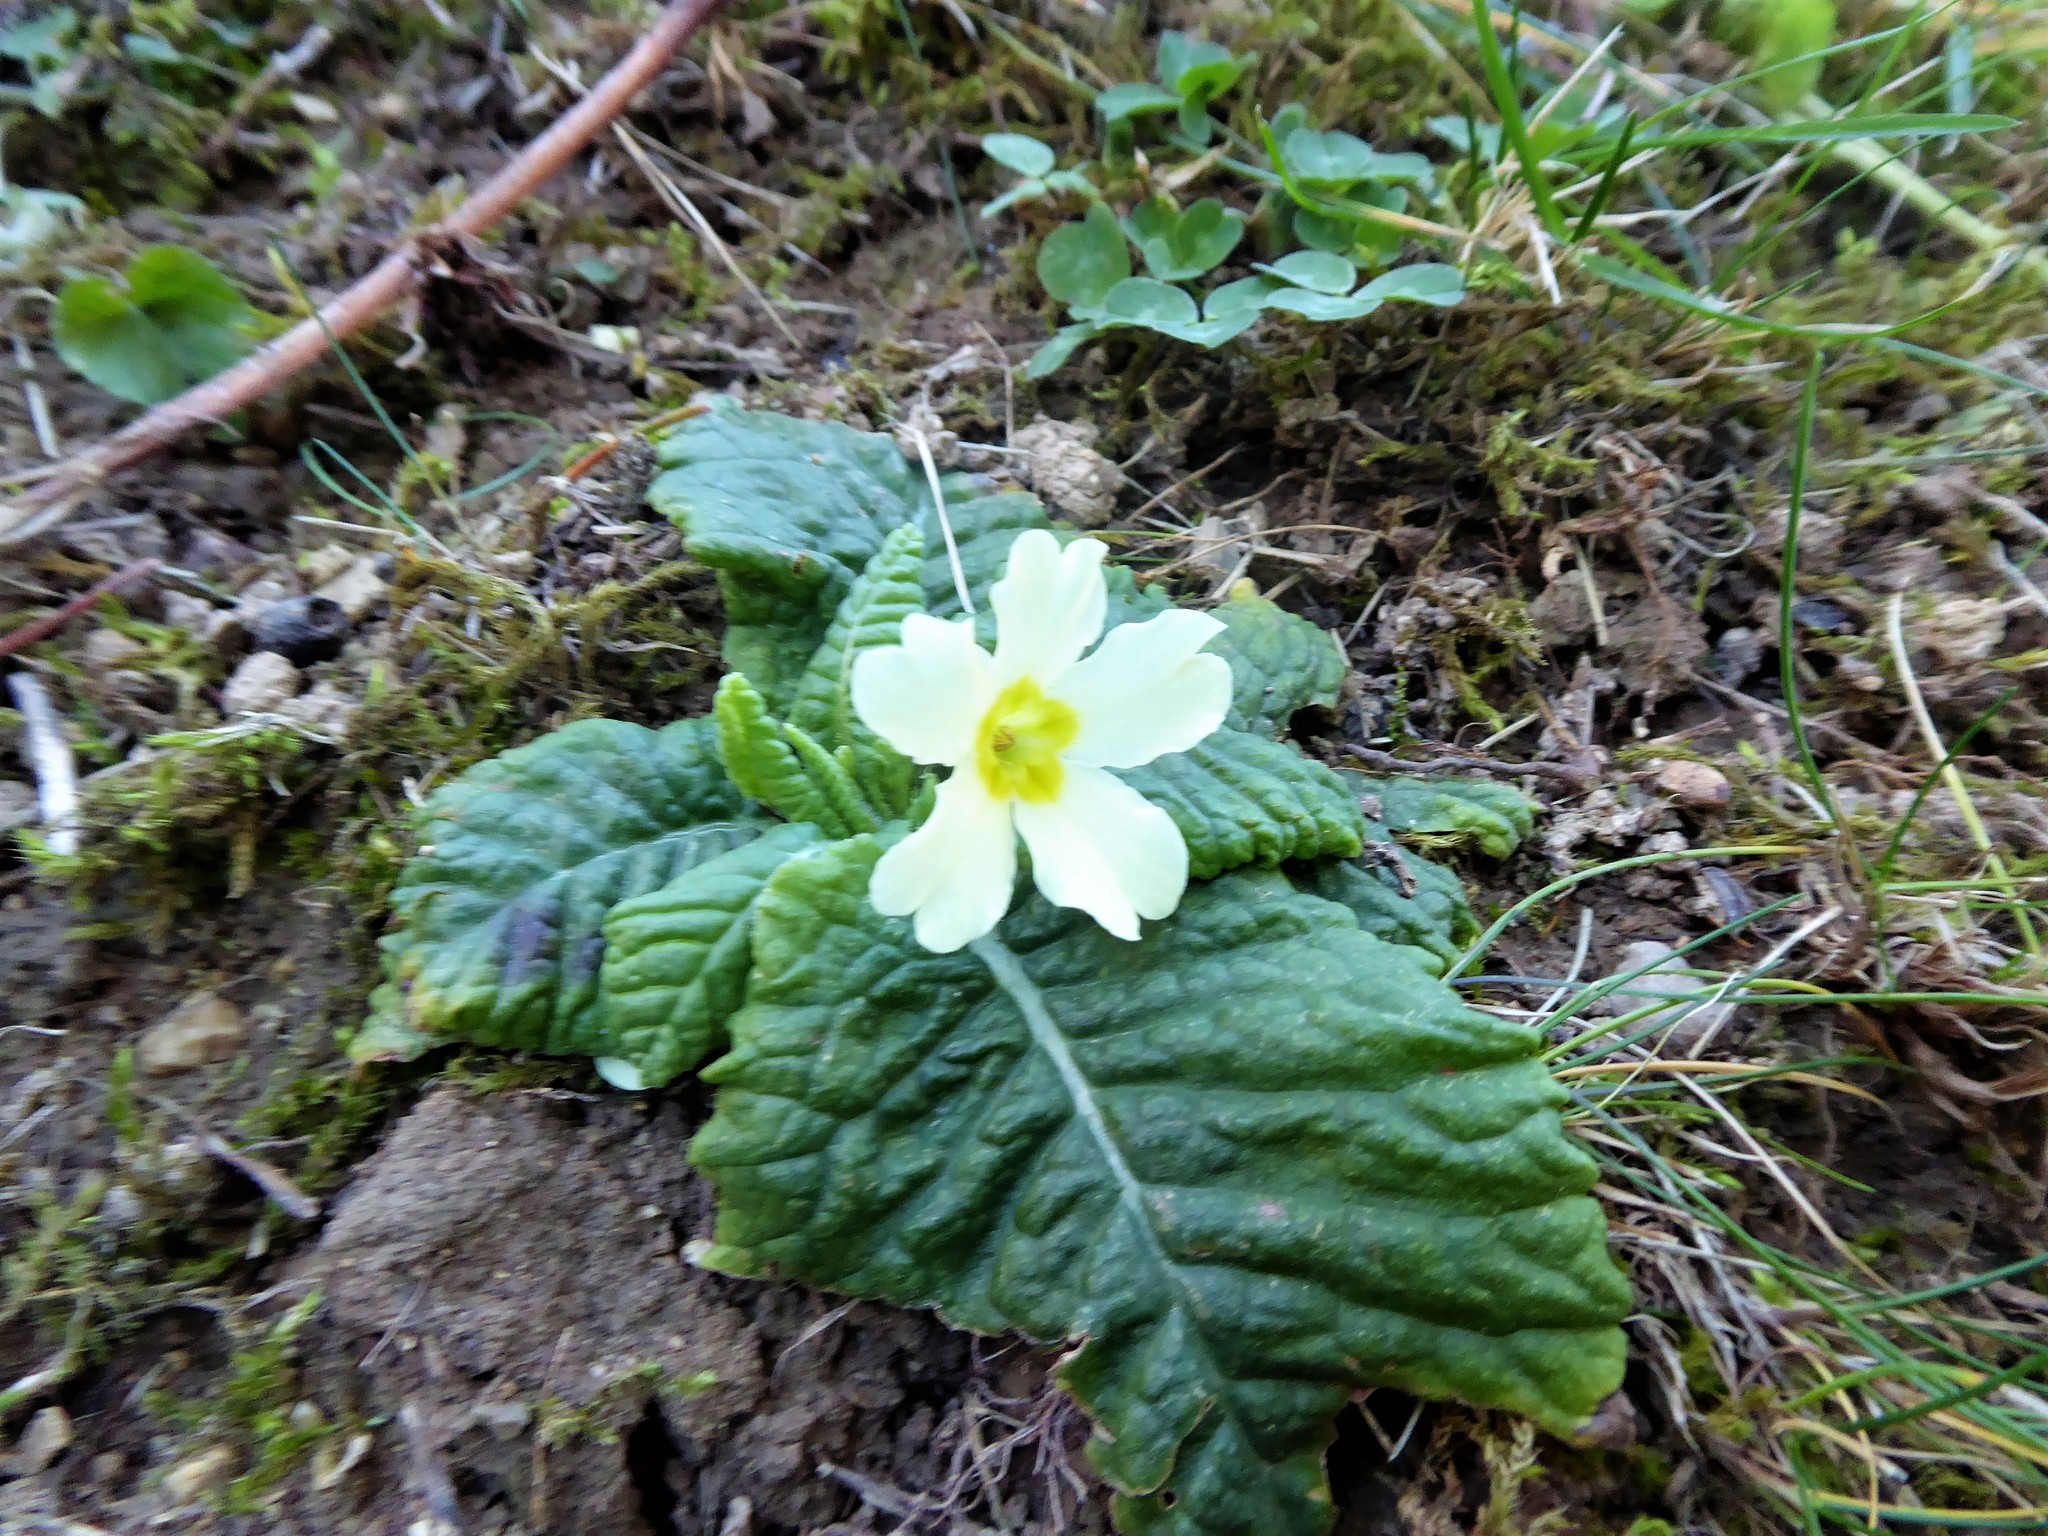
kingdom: Plantae
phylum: Tracheophyta
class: Magnoliopsida
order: Ericales
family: Primulaceae
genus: Primula
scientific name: Primula vulgaris
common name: Primrose
